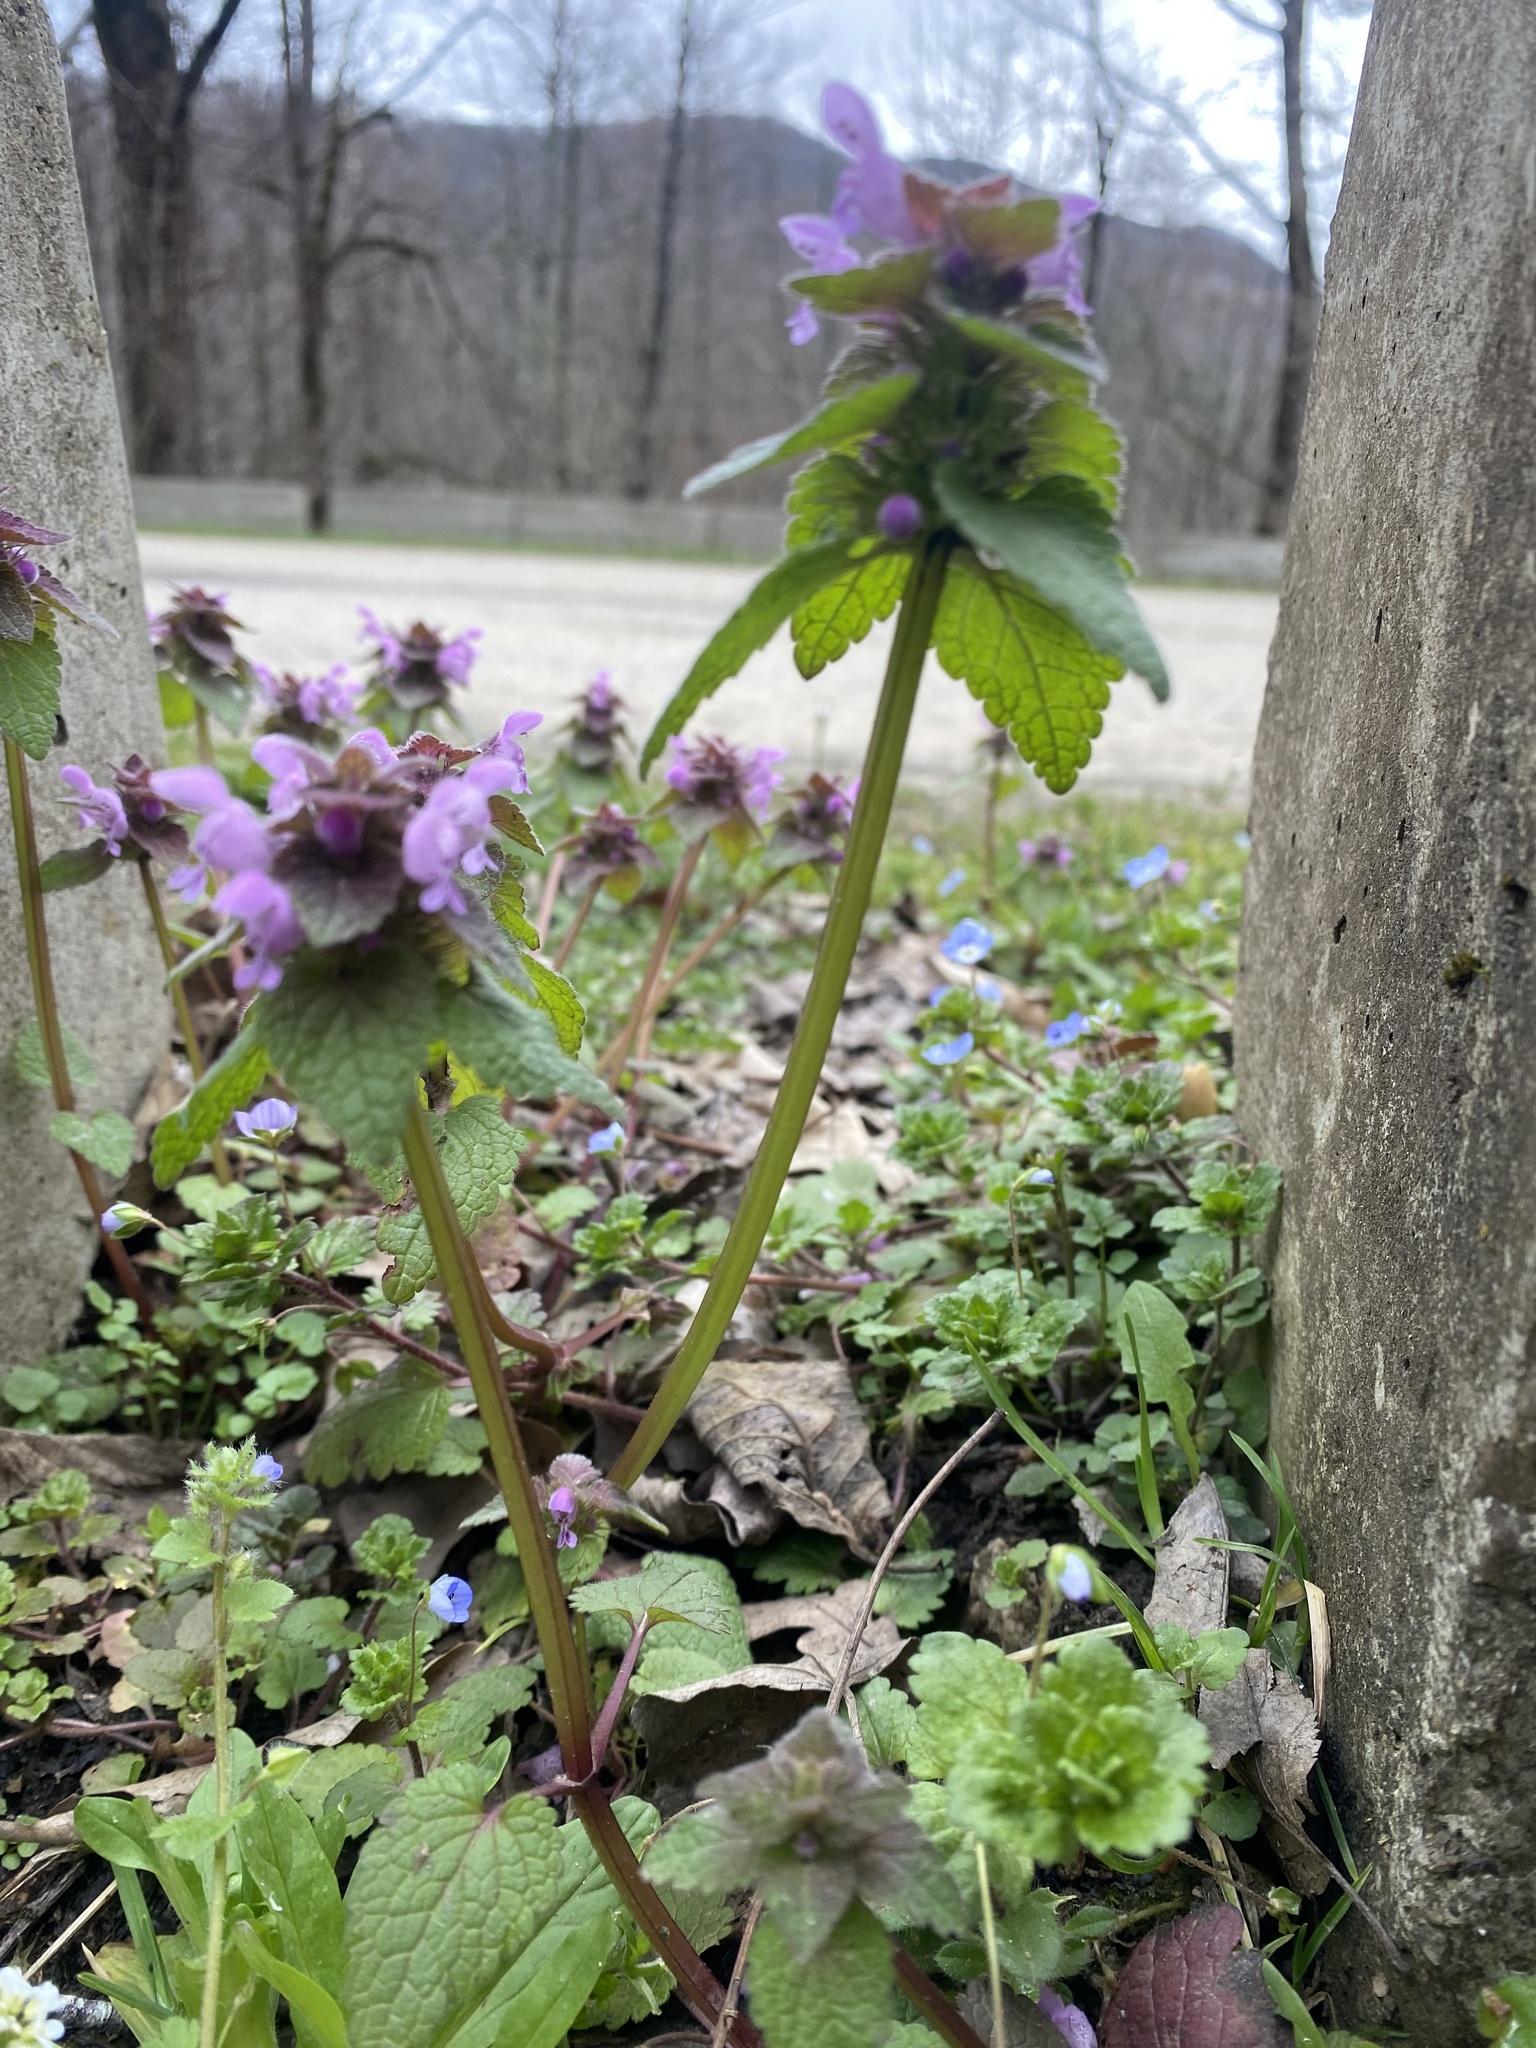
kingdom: Plantae
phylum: Tracheophyta
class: Magnoliopsida
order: Lamiales
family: Lamiaceae
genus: Lamium
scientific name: Lamium purpureum
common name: Red dead-nettle
